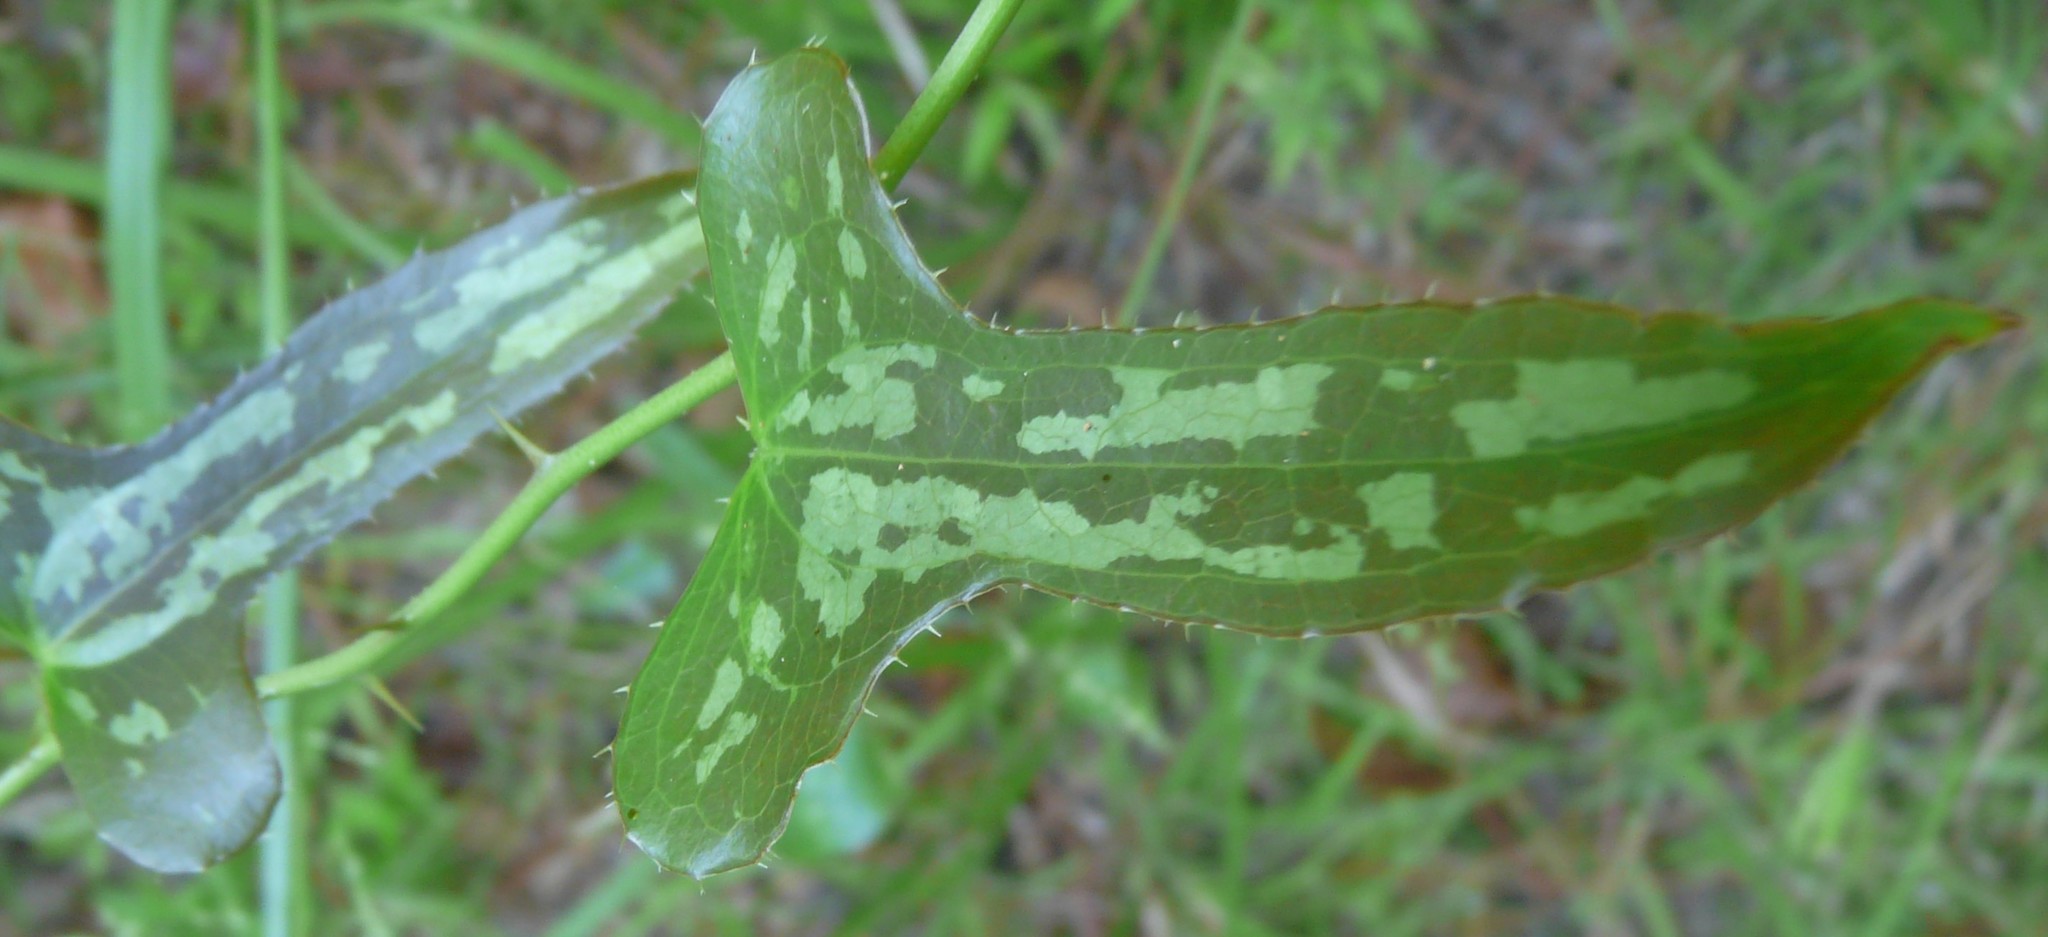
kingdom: Plantae
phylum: Tracheophyta
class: Liliopsida
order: Liliales
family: Smilacaceae
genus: Smilax
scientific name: Smilax bona-nox
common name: Catbrier
